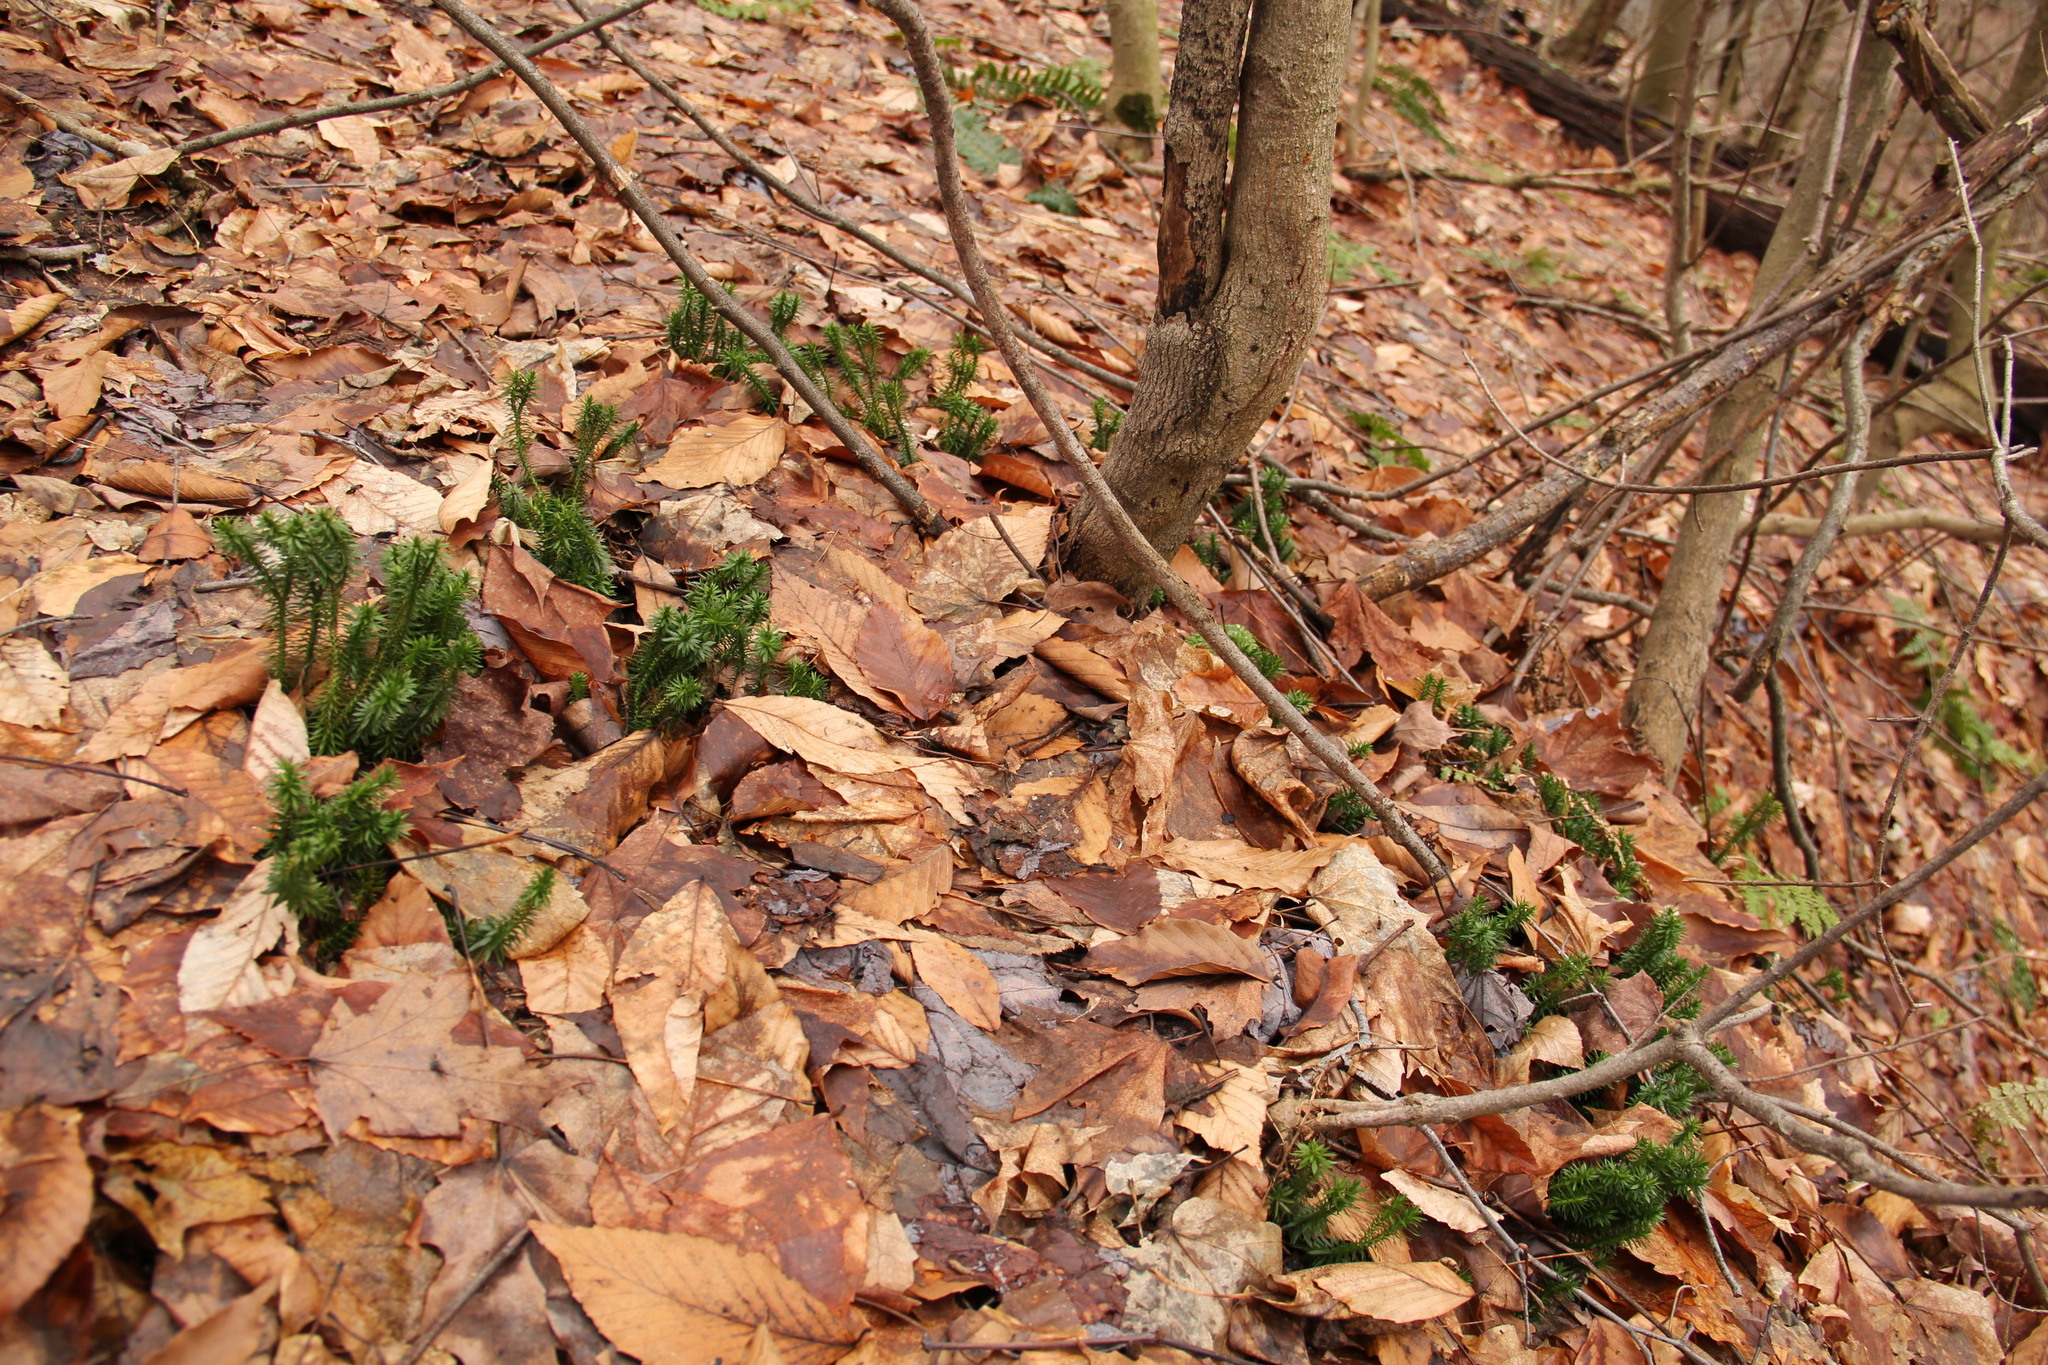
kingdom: Plantae
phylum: Tracheophyta
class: Lycopodiopsida
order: Lycopodiales
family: Lycopodiaceae
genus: Huperzia
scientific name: Huperzia lucidula
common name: Shining clubmoss
